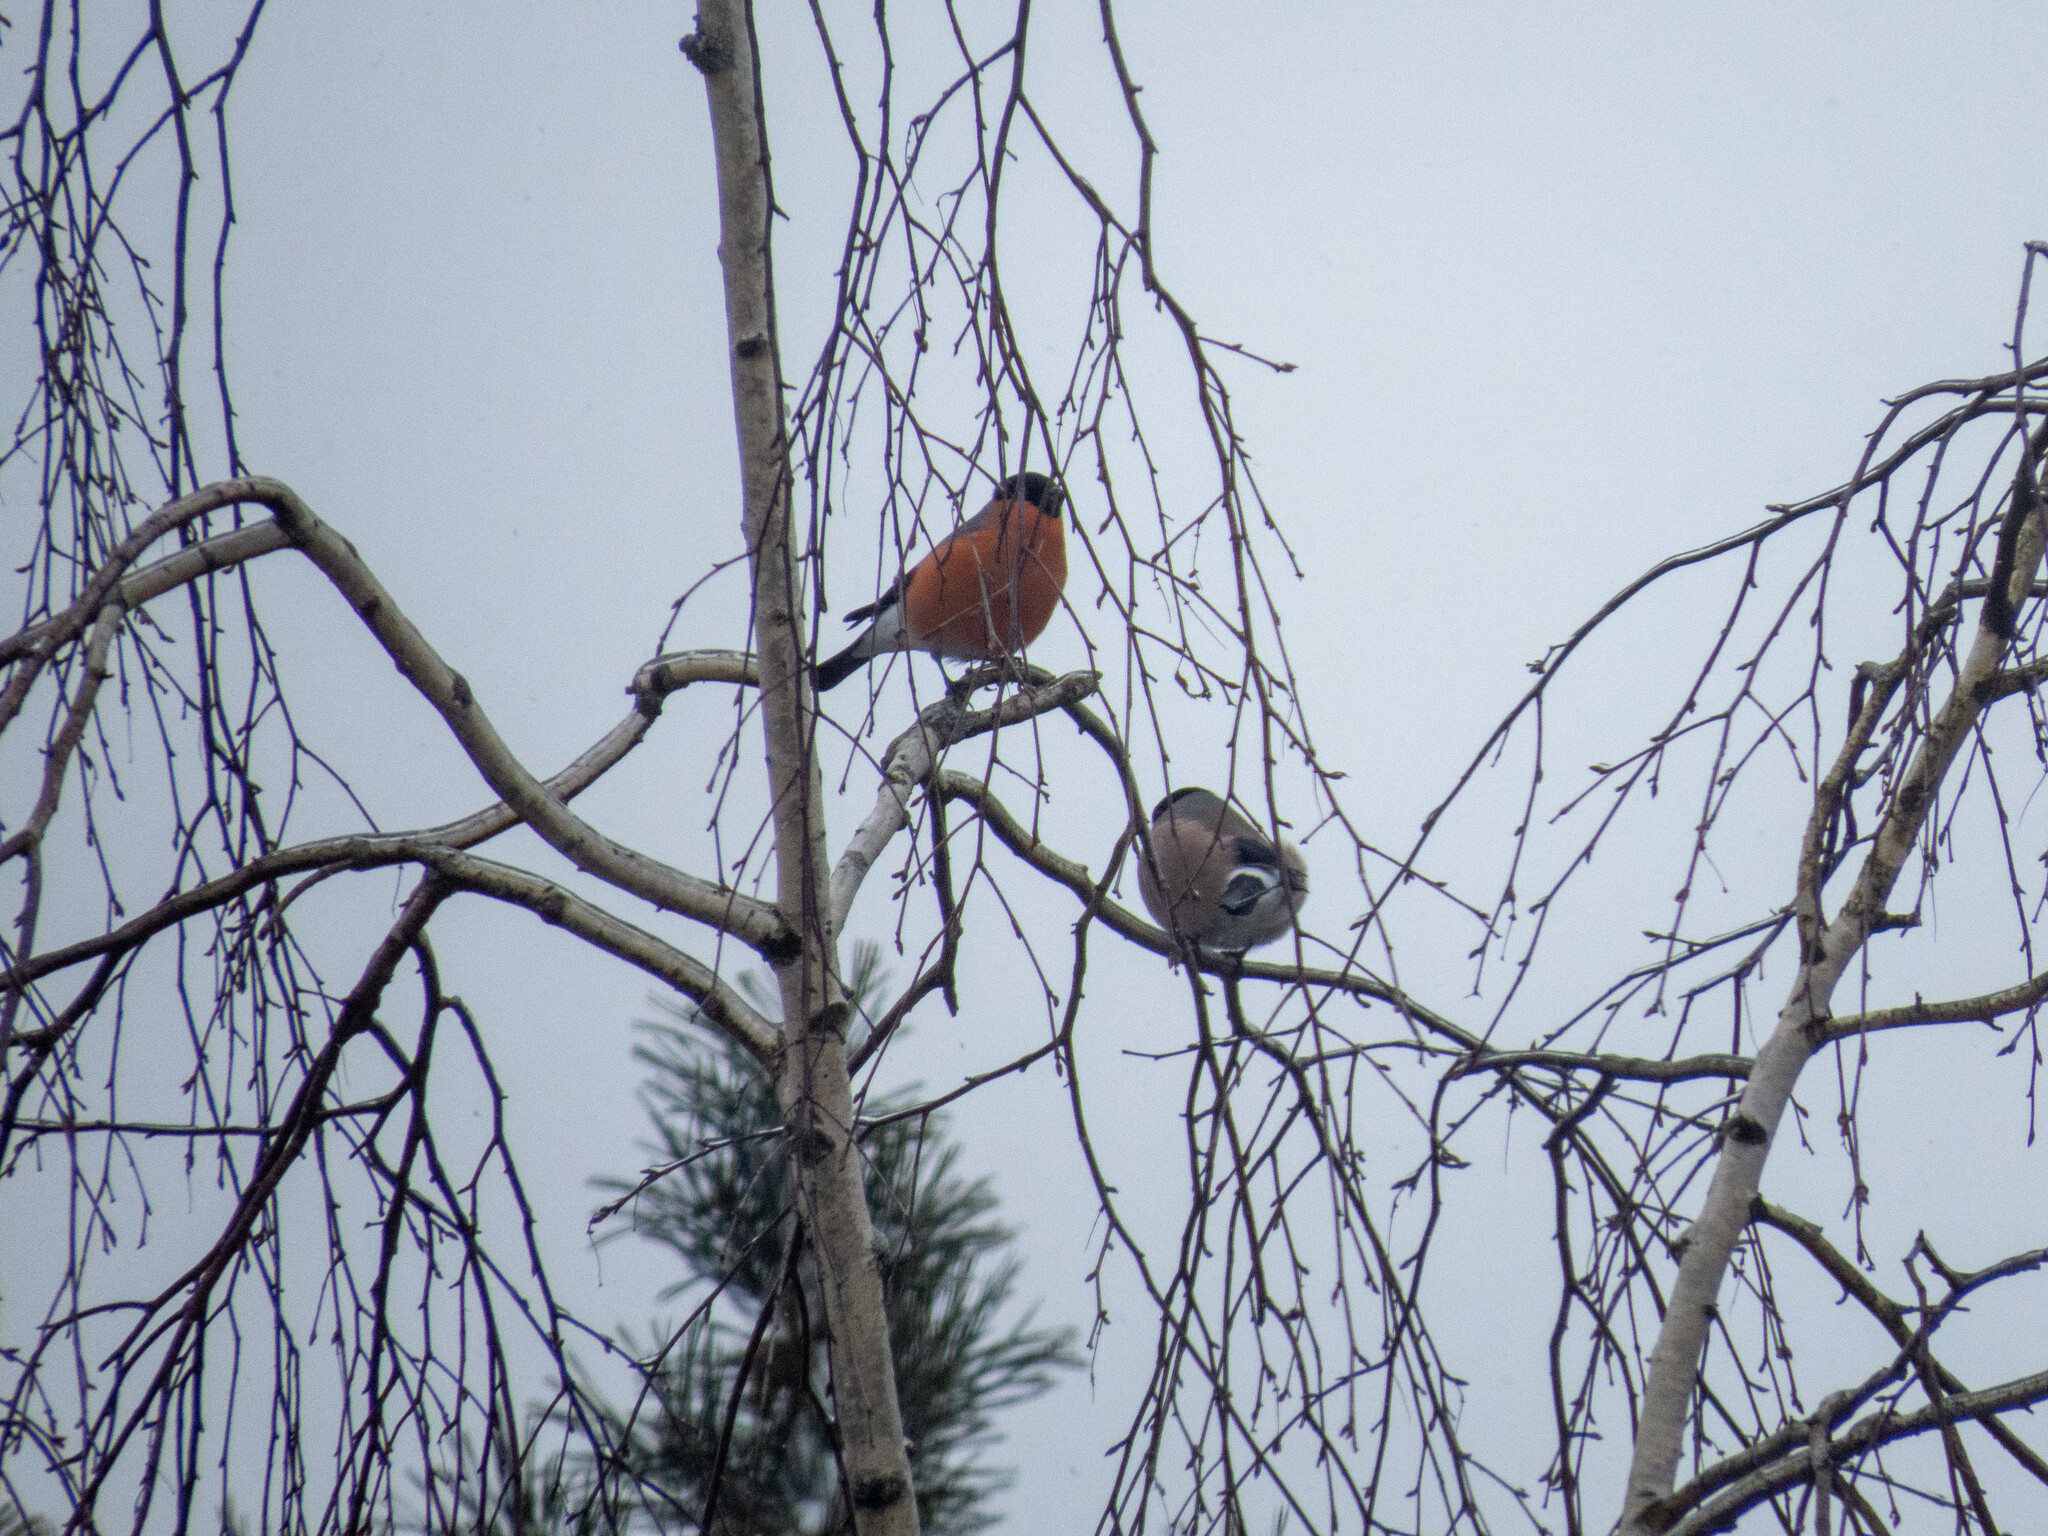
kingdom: Animalia
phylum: Chordata
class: Aves
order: Passeriformes
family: Fringillidae
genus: Pyrrhula
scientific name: Pyrrhula pyrrhula
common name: Eurasian bullfinch
